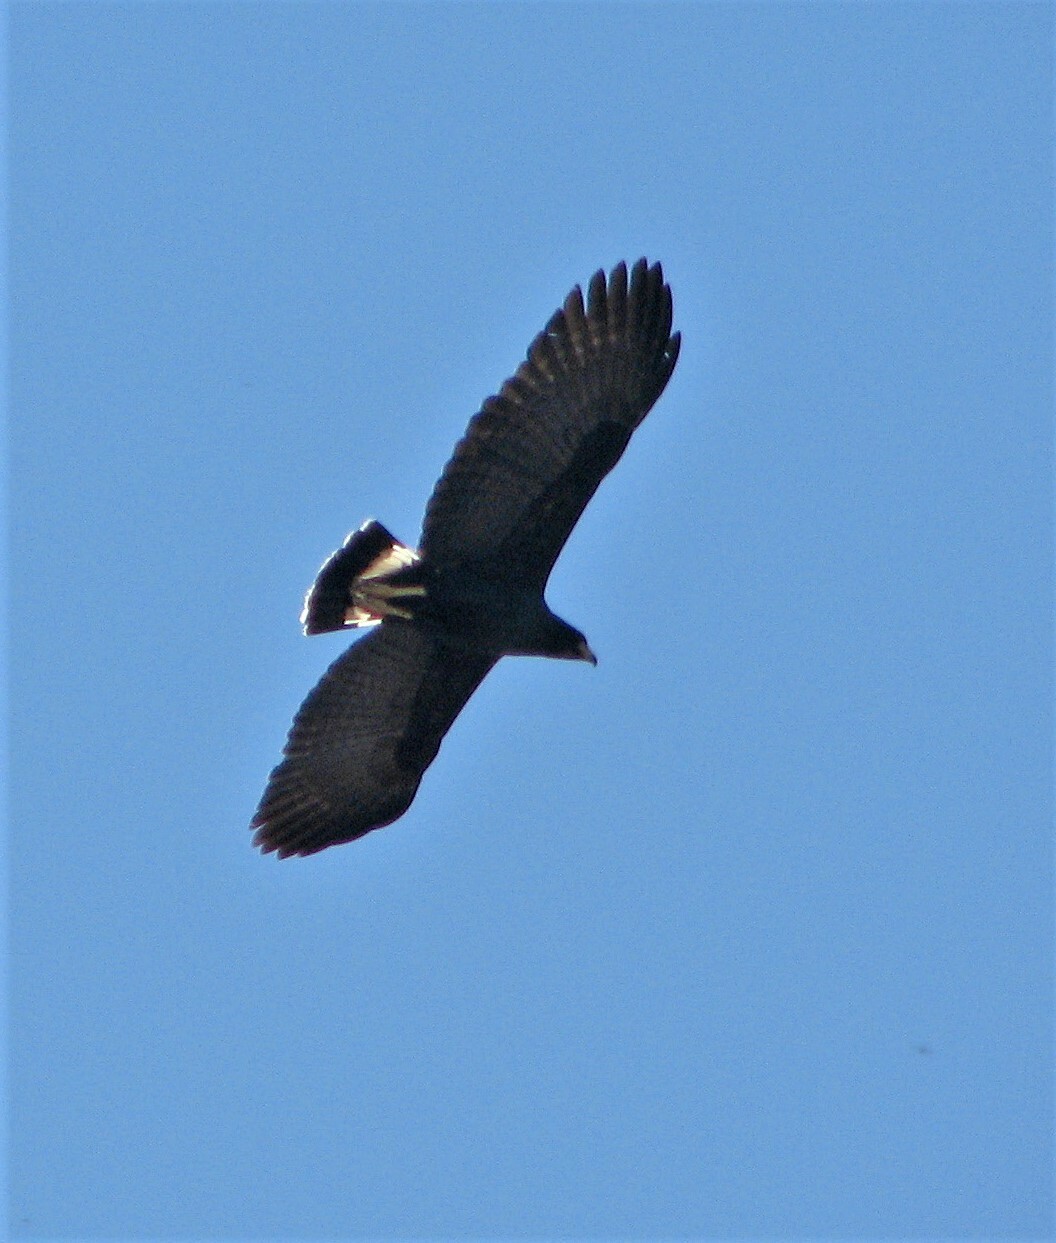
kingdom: Animalia
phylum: Chordata
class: Aves
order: Accipitriformes
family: Accipitridae
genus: Buteogallus
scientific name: Buteogallus urubitinga
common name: Great black hawk
